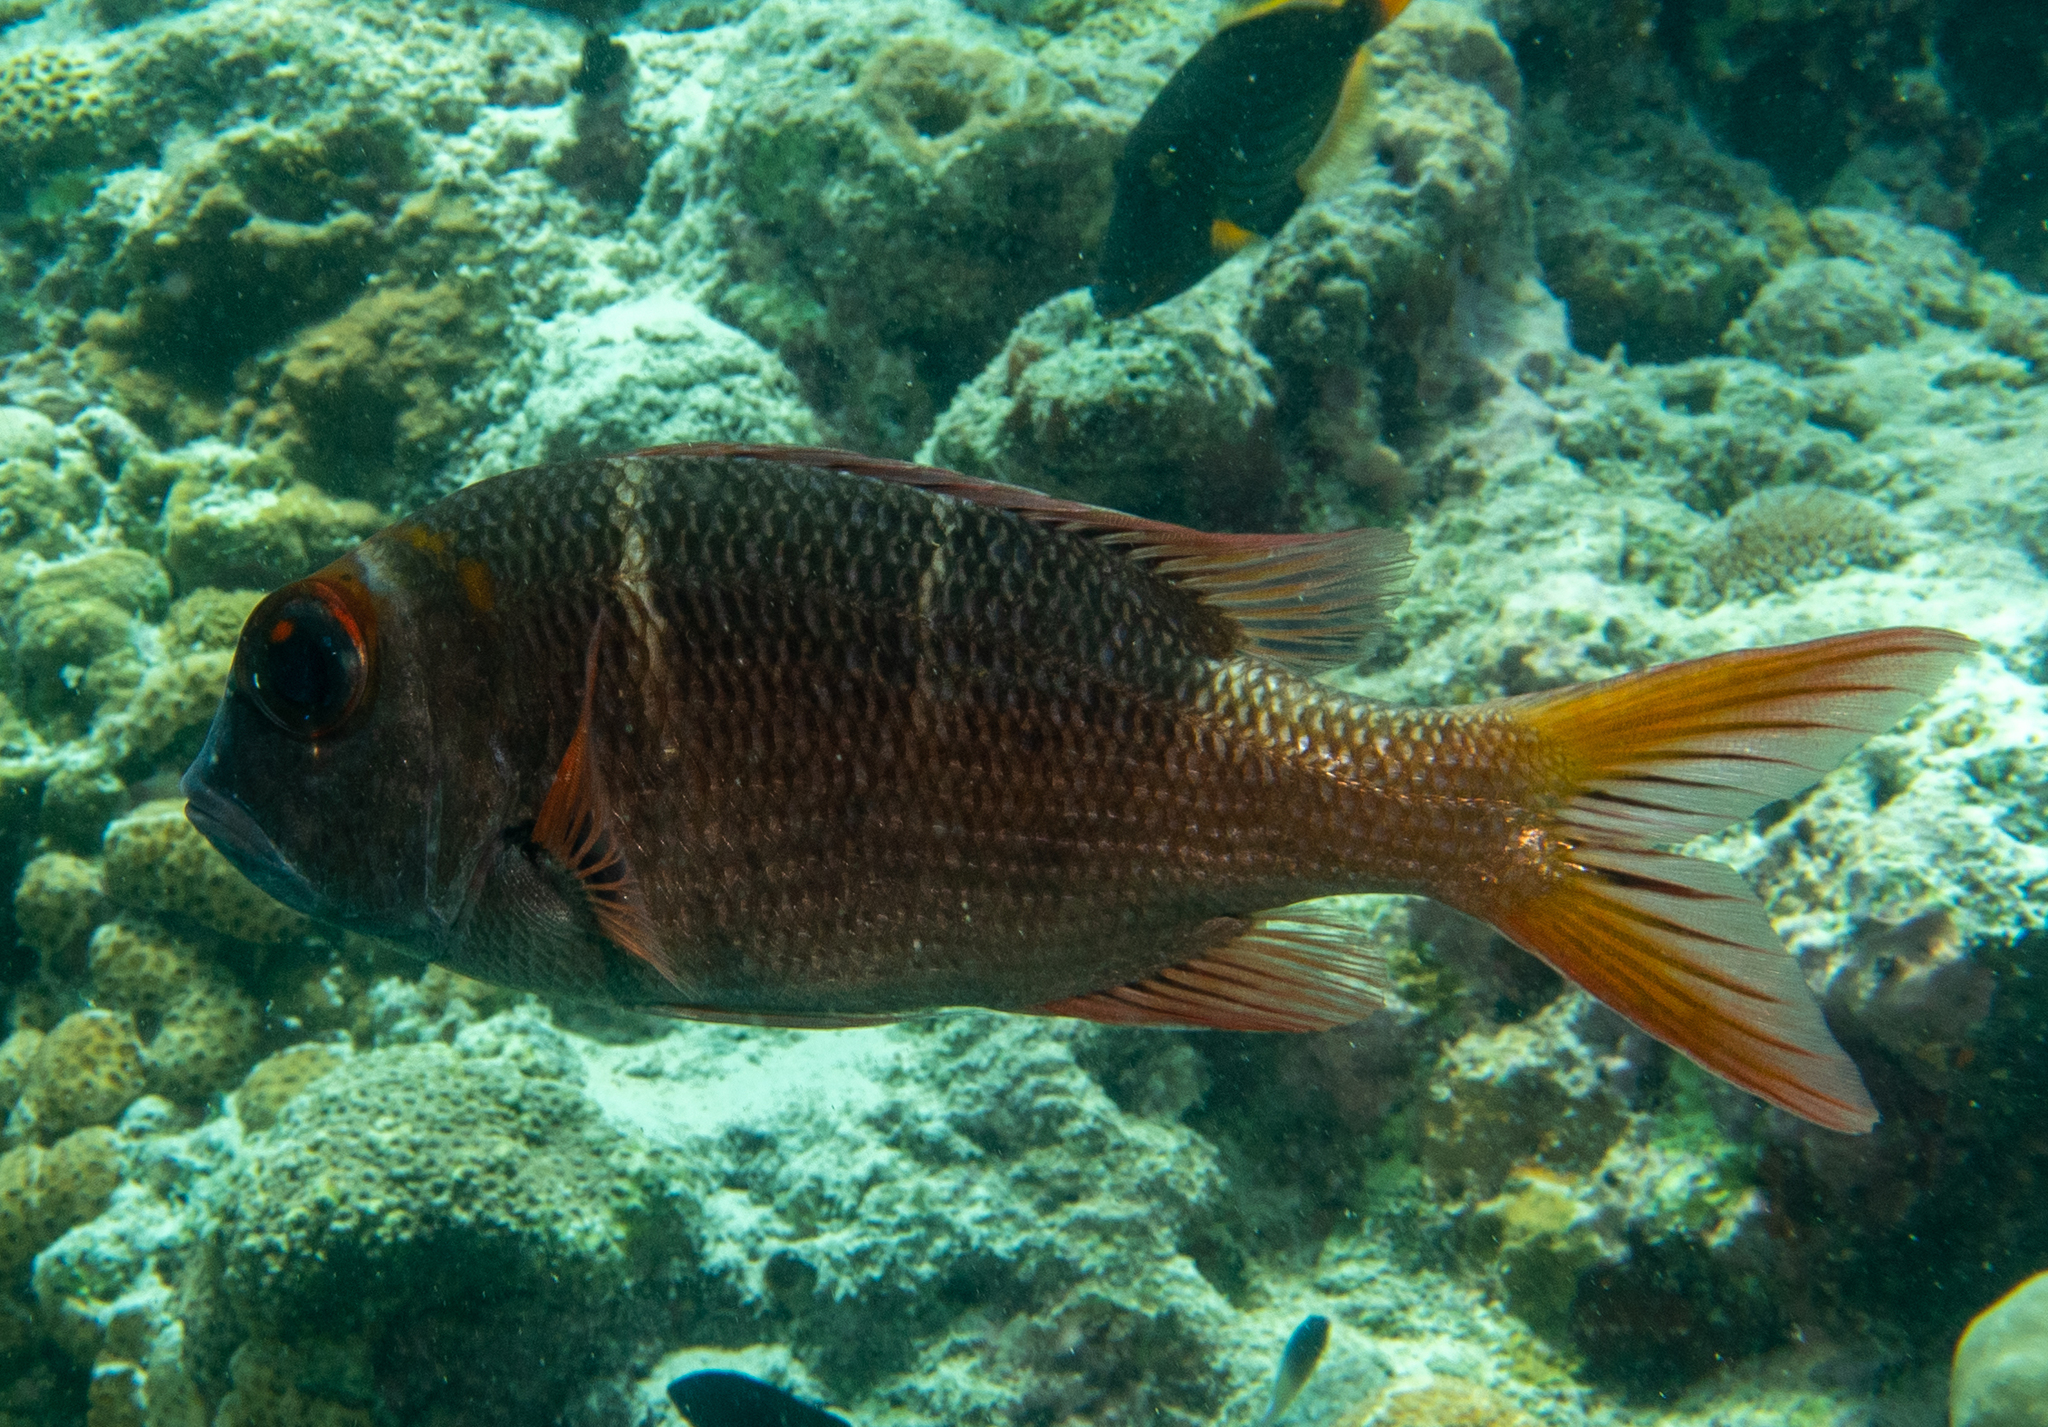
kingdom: Animalia
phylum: Chordata
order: Perciformes
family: Lethrinidae
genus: Monotaxis
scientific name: Monotaxis heterodon
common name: Redfin emperor
